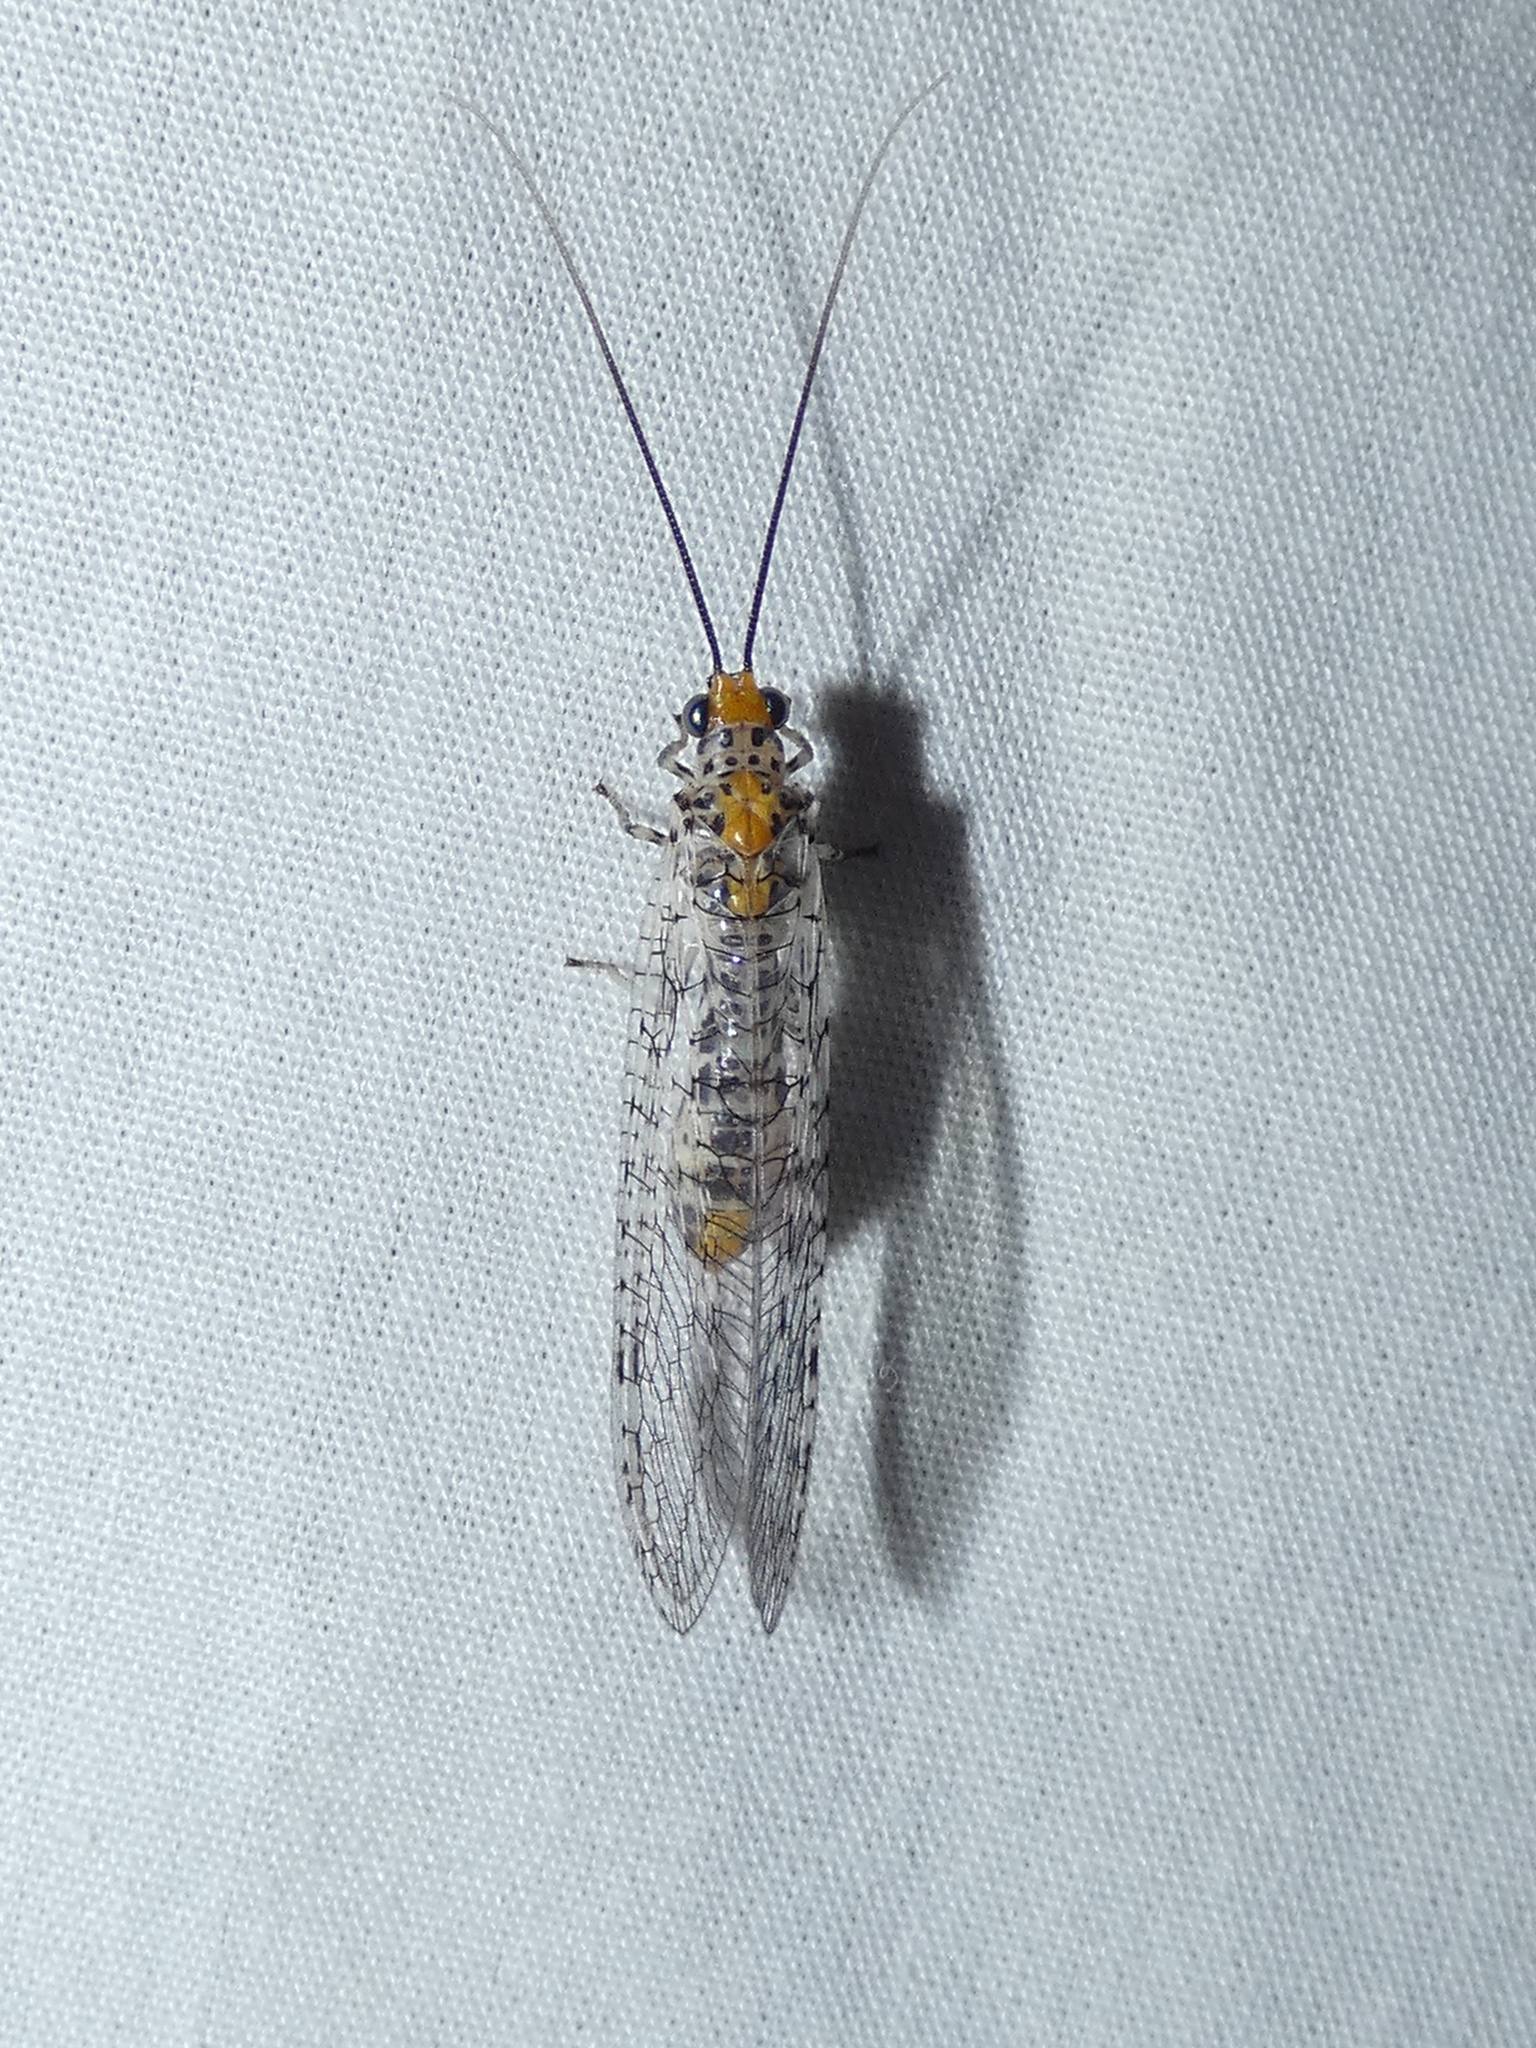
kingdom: Animalia
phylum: Arthropoda
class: Insecta
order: Neuroptera
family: Chrysopidae
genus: Abachrysa
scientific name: Abachrysa eureka
